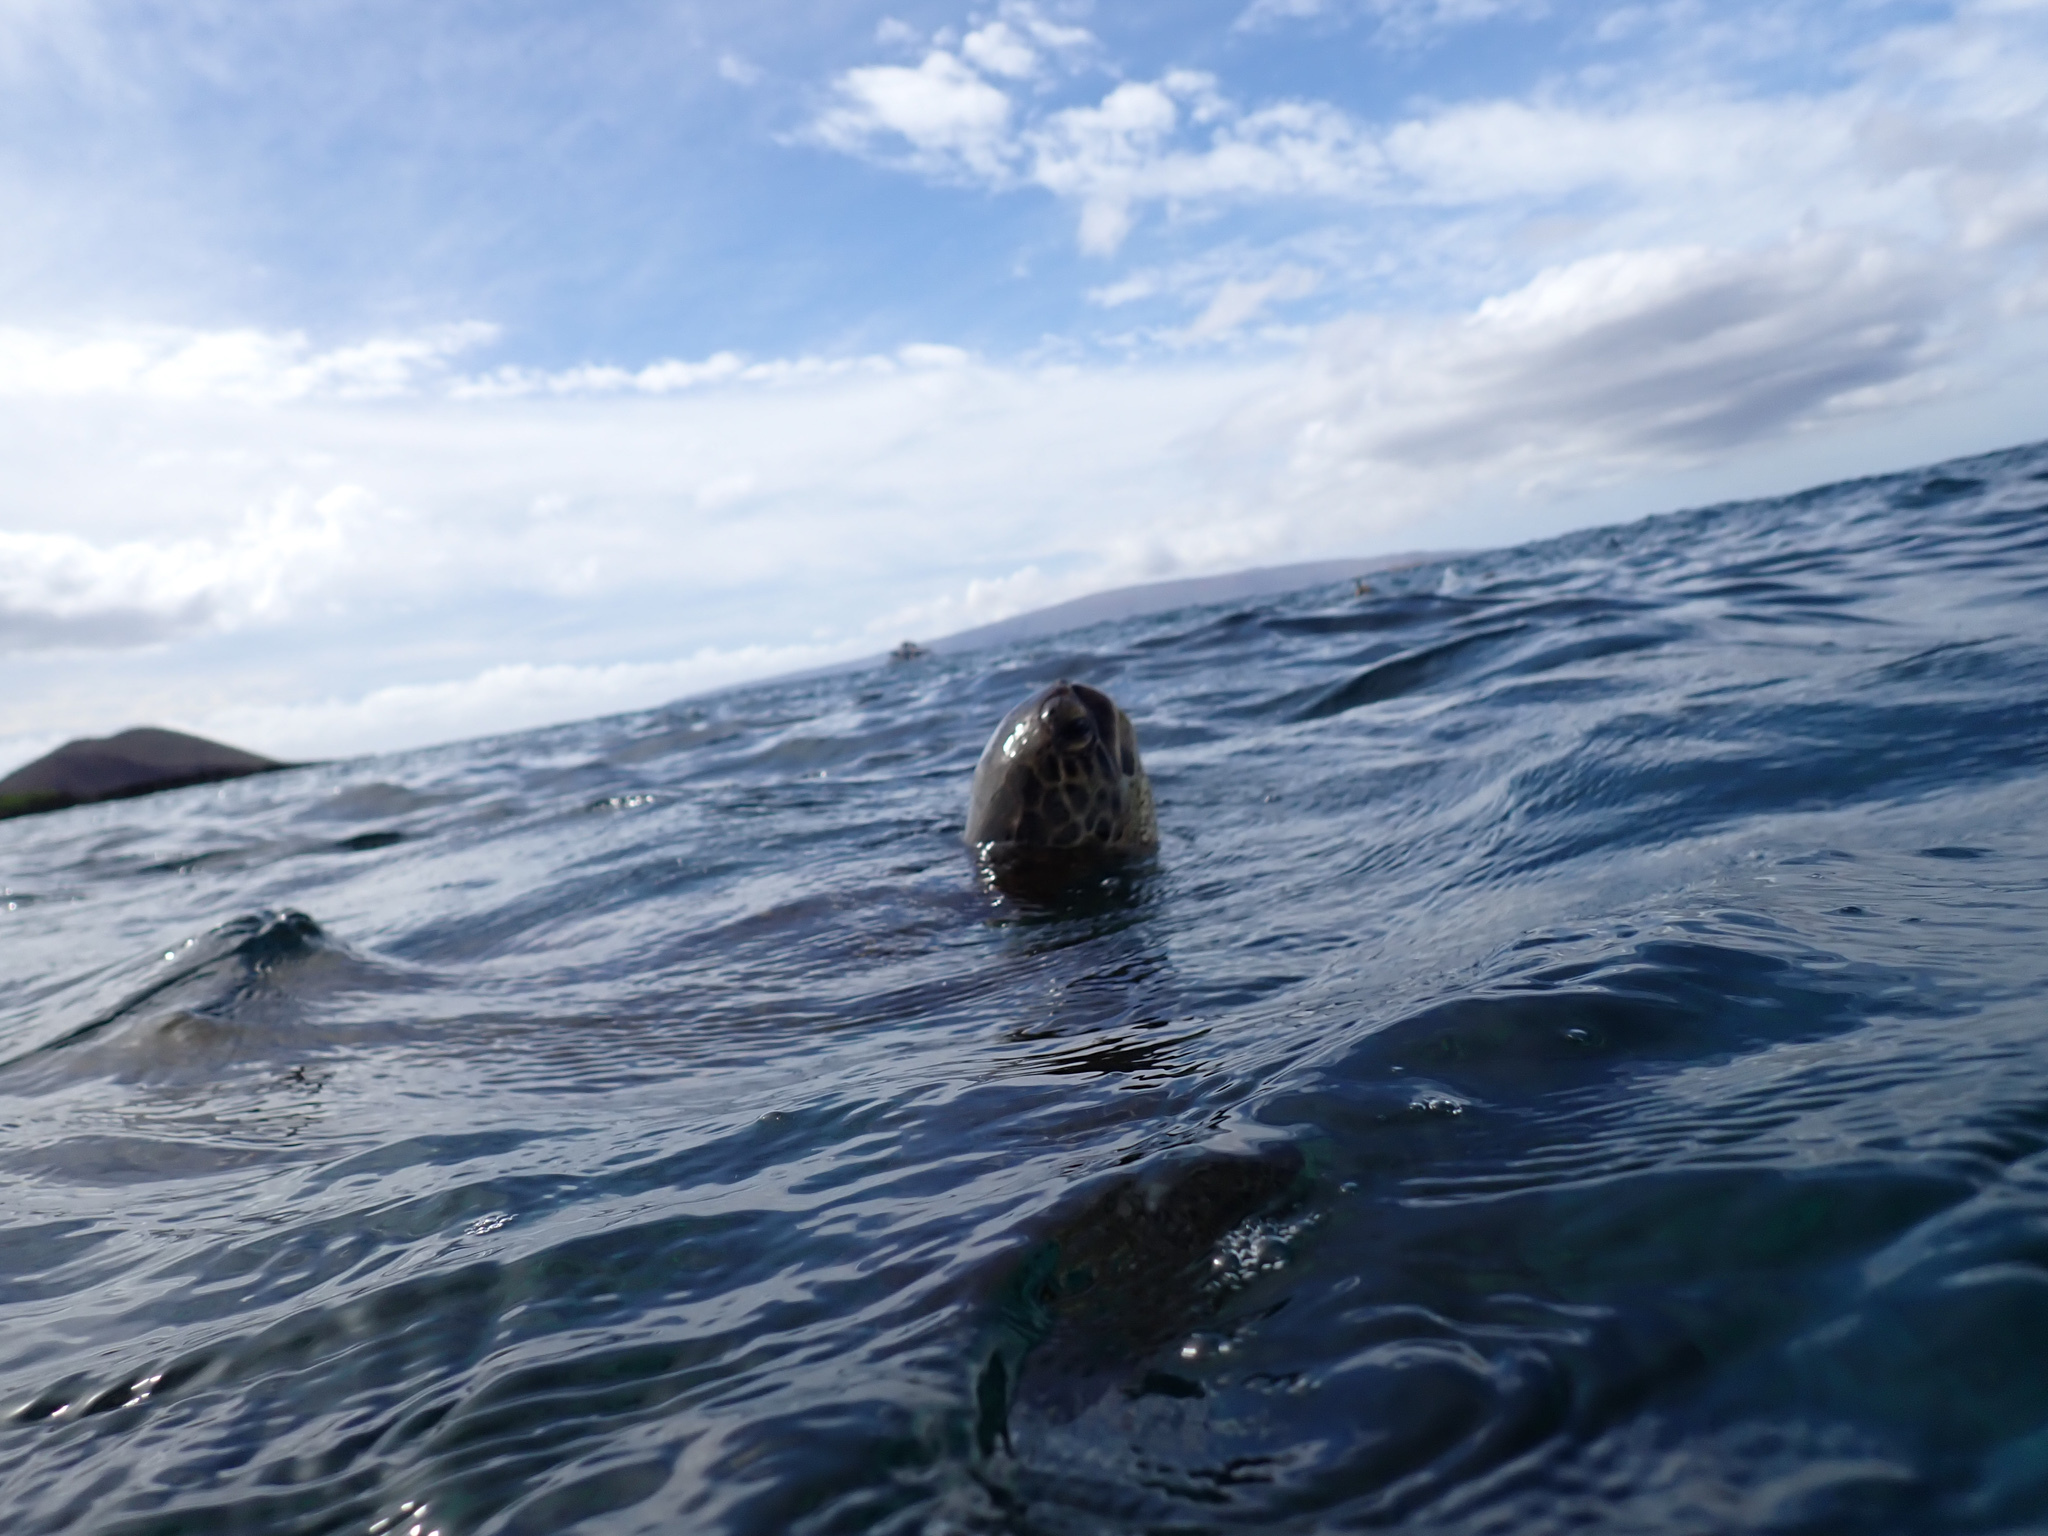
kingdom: Animalia
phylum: Chordata
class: Testudines
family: Cheloniidae
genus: Chelonia
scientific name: Chelonia mydas
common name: Green turtle
